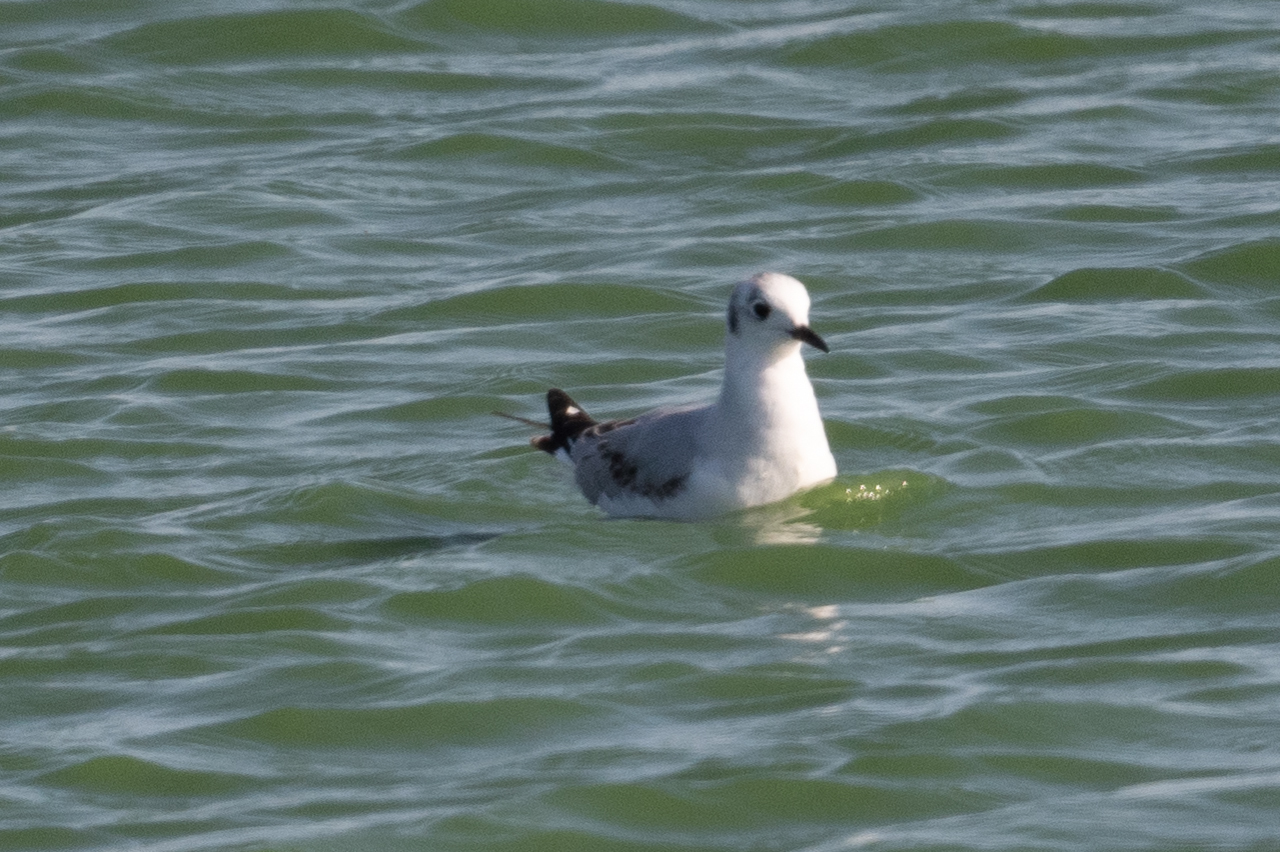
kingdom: Animalia
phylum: Chordata
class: Aves
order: Charadriiformes
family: Laridae
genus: Chroicocephalus
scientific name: Chroicocephalus philadelphia
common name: Bonaparte's gull
